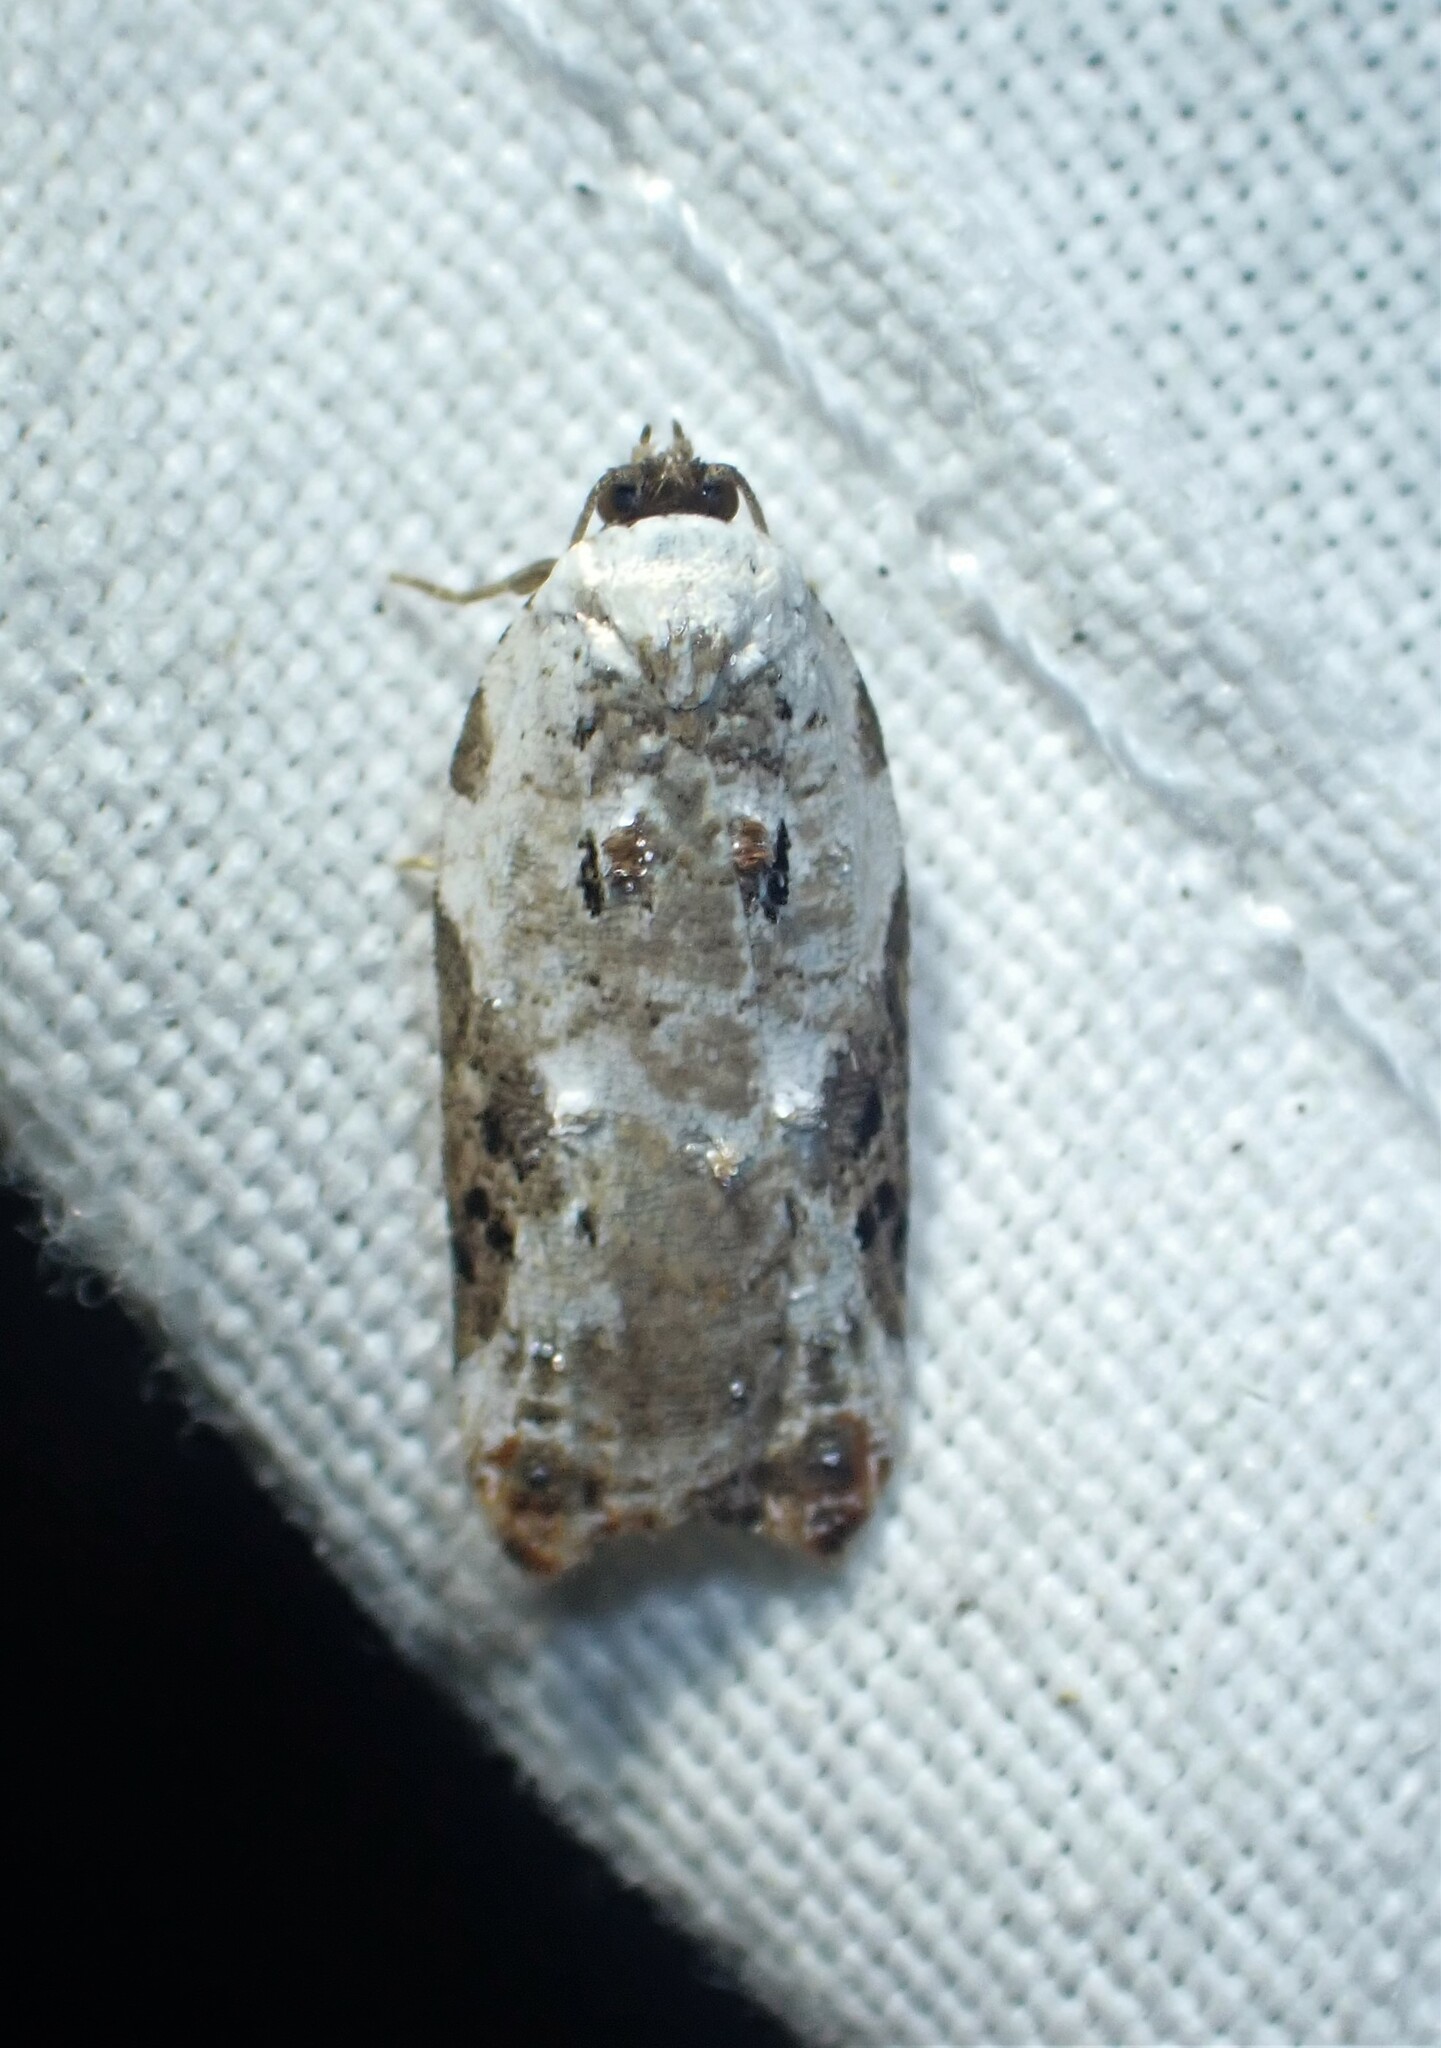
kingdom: Animalia
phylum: Arthropoda
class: Insecta
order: Lepidoptera
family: Tortricidae
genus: Acleris
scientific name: Acleris nivisellana
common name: Snowy-shouldered acleris moth
